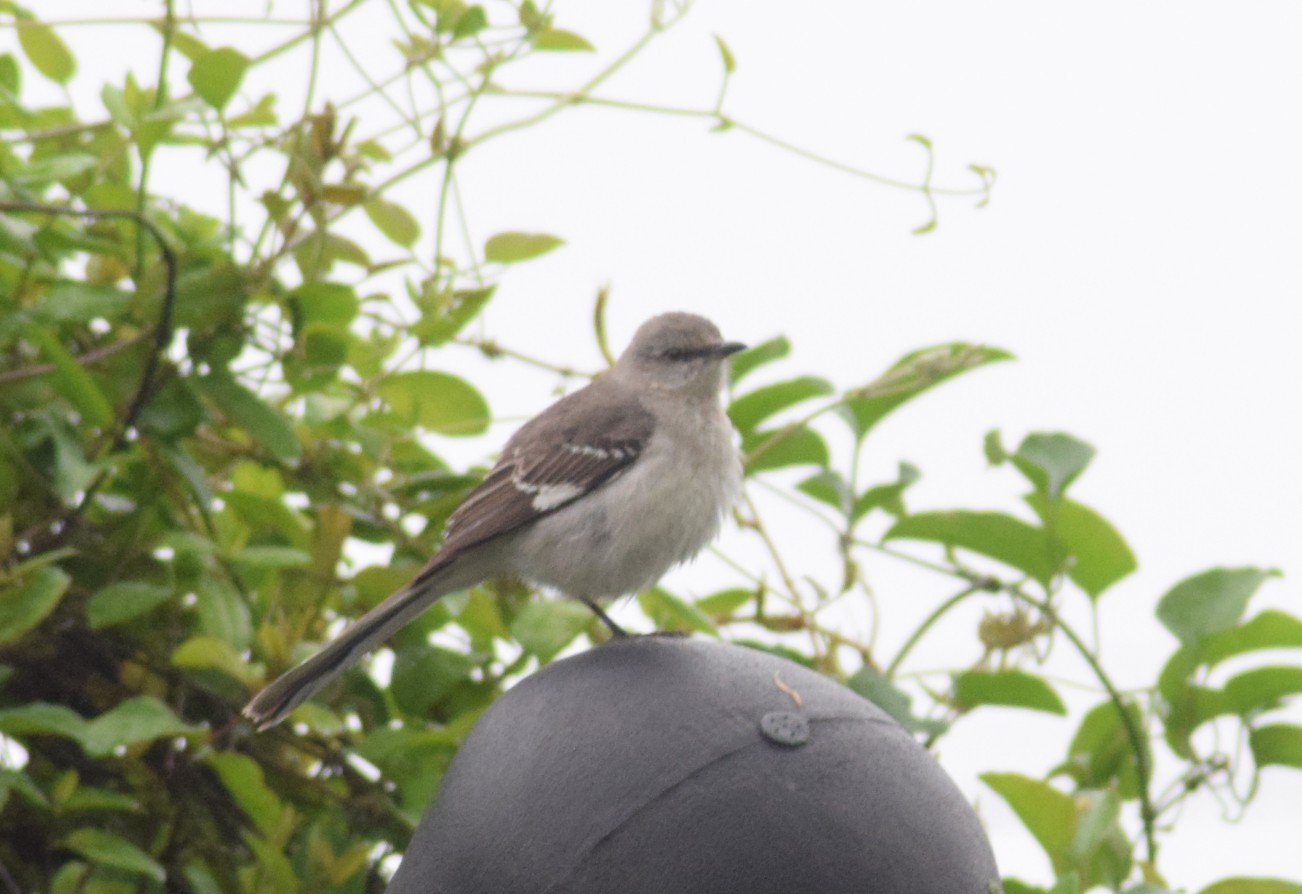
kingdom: Animalia
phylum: Chordata
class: Aves
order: Passeriformes
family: Mimidae
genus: Mimus
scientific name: Mimus polyglottos
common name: Northern mockingbird
